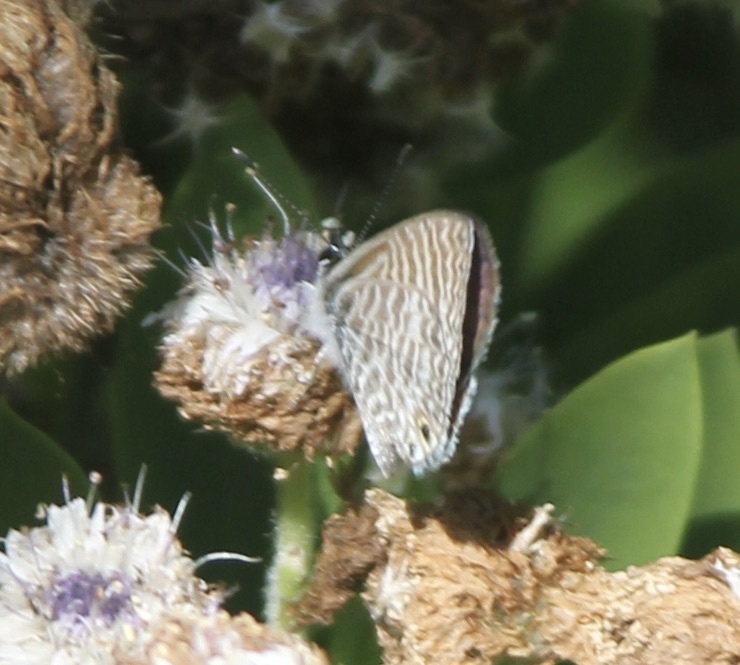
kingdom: Animalia
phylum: Arthropoda
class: Insecta
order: Lepidoptera
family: Lycaenidae
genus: Leptotes
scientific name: Leptotes marina
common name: Marine blue
